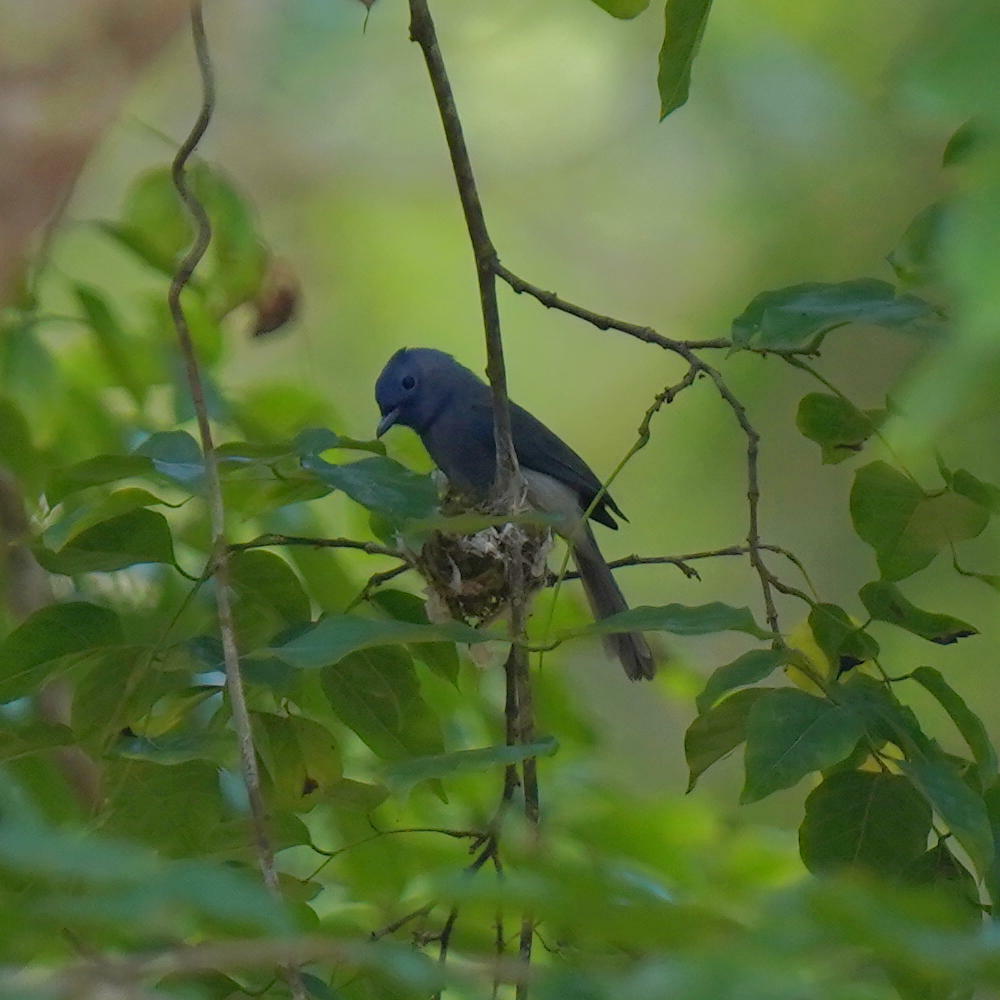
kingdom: Animalia
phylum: Chordata
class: Aves
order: Passeriformes
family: Monarchidae
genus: Hypothymis
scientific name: Hypothymis azurea
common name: Black-naped monarch
